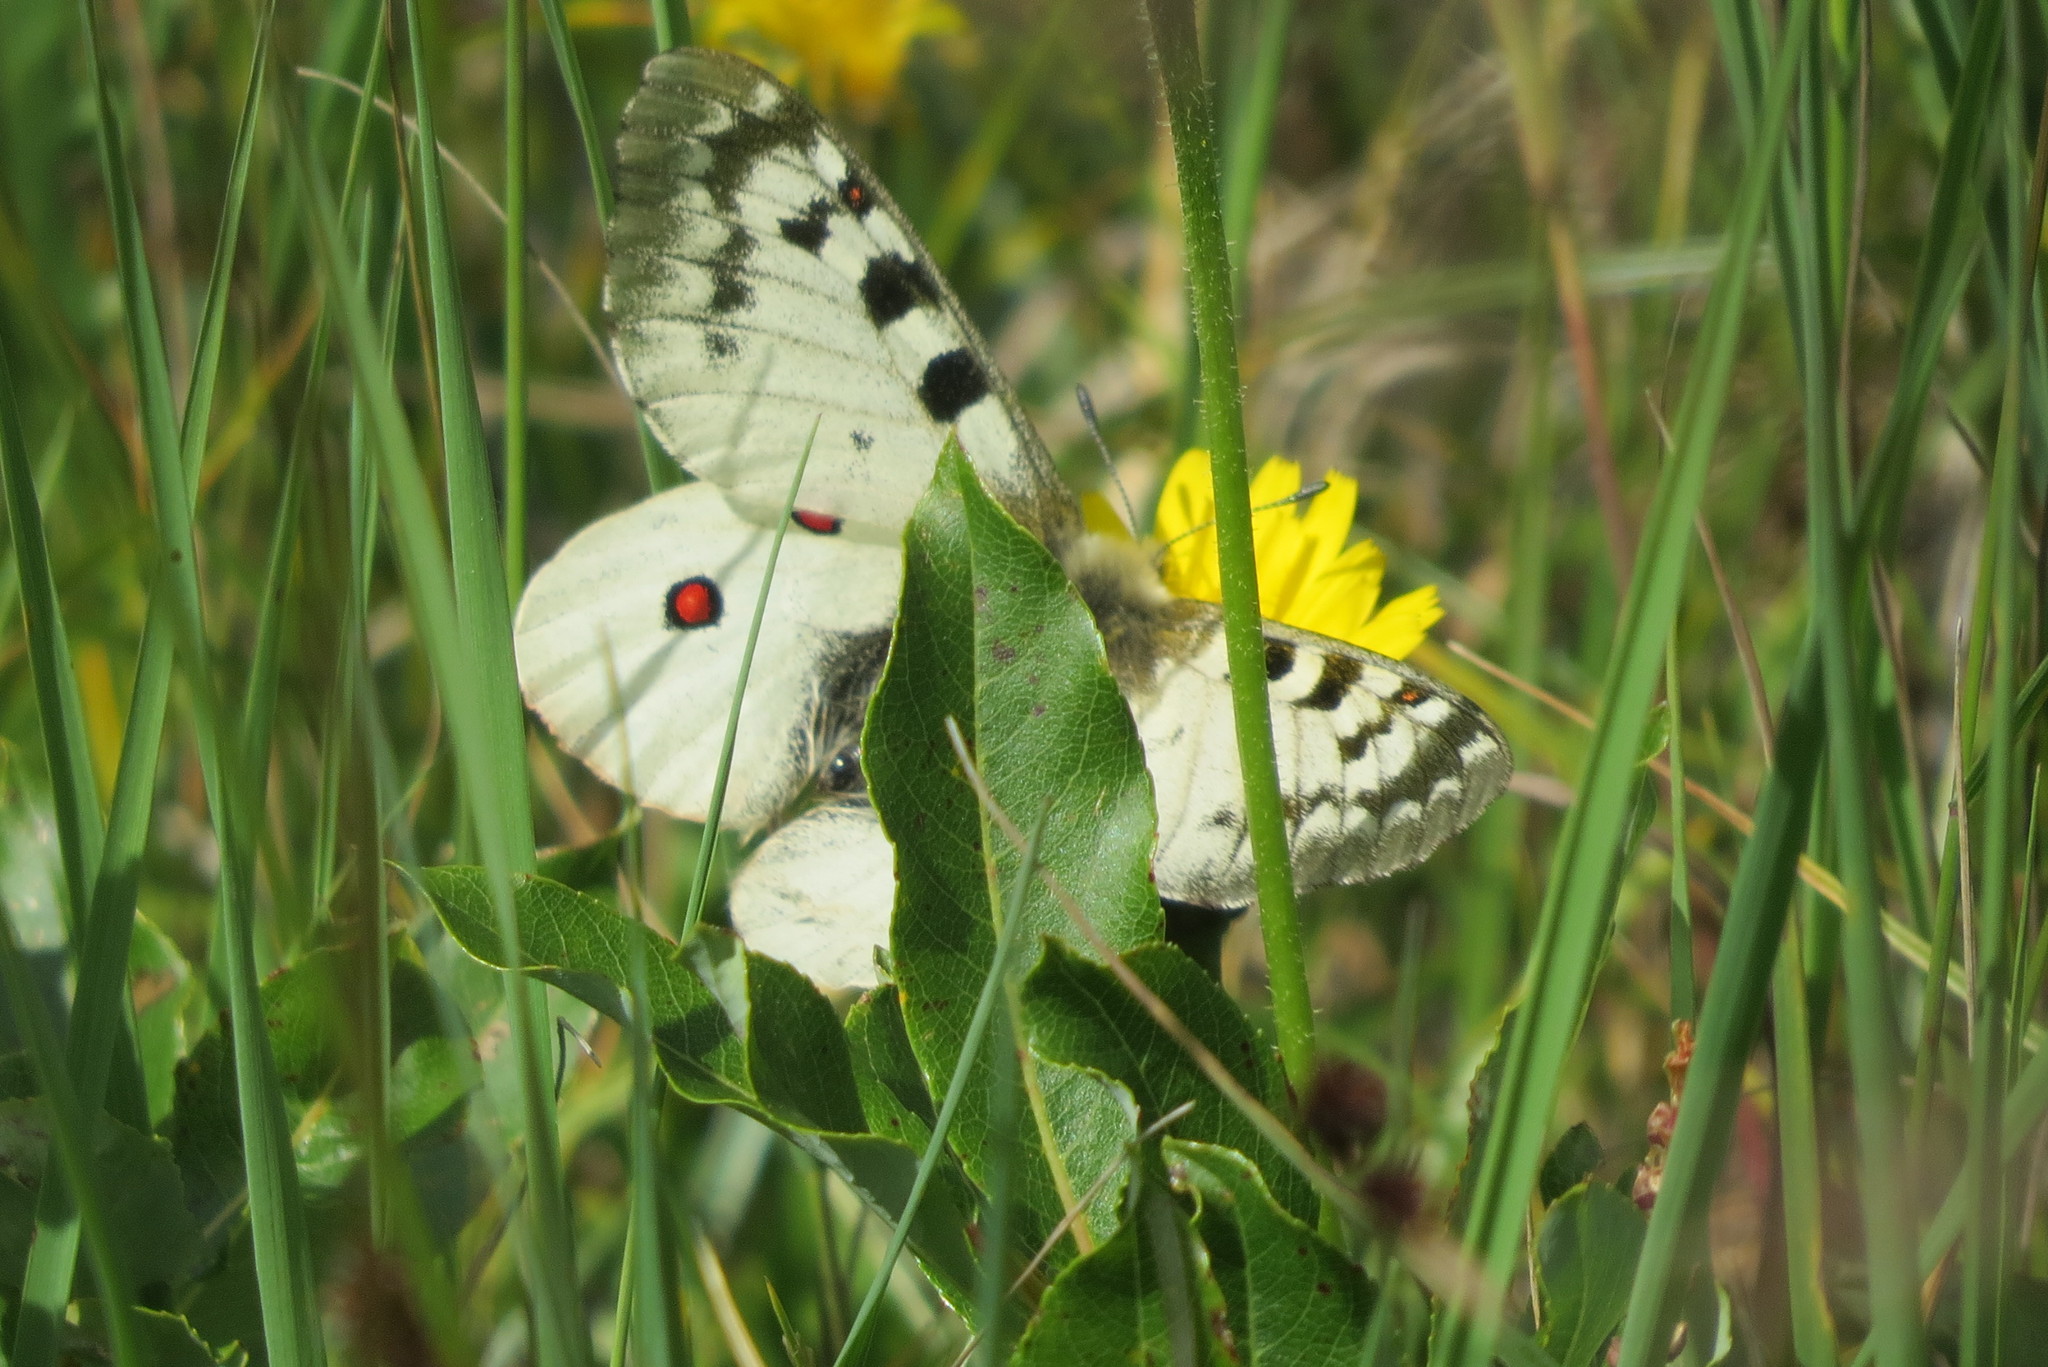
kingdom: Animalia
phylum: Arthropoda
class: Insecta
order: Lepidoptera
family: Papilionidae
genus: Parnassius
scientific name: Parnassius phoebus
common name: Small apollo
